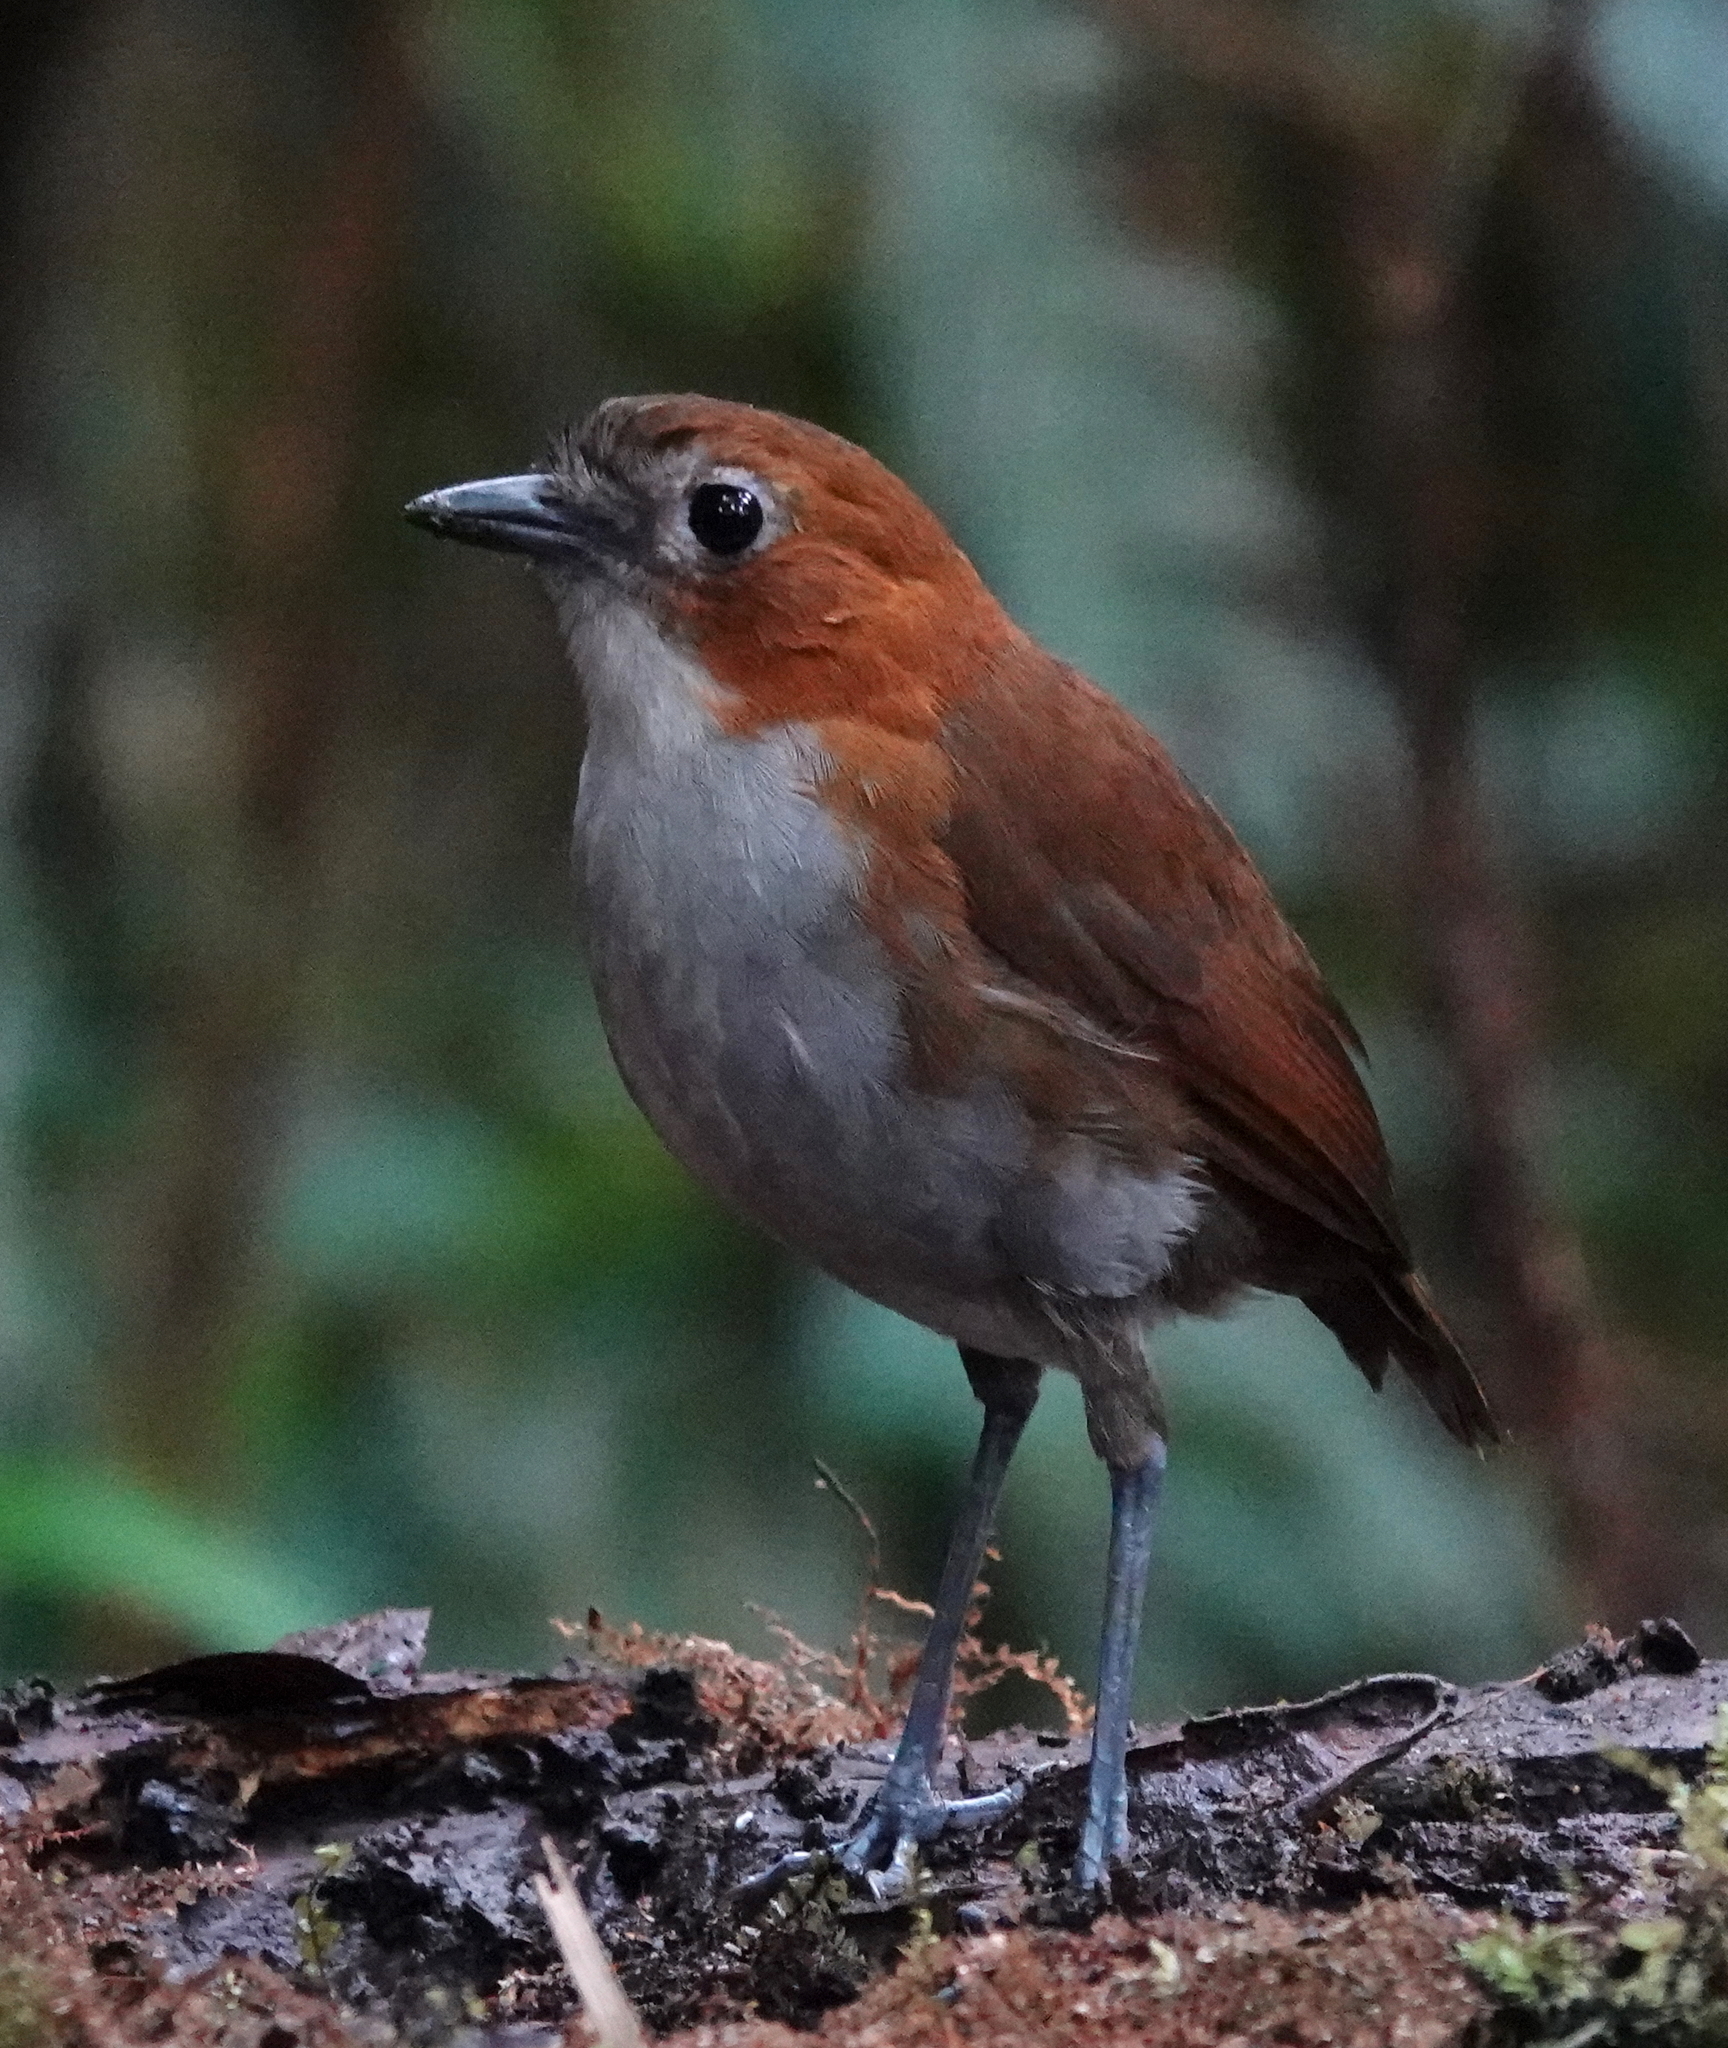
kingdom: Animalia
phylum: Chordata
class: Aves
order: Passeriformes
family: Grallariidae
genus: Grallaria
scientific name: Grallaria hypoleuca
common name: White-bellied antpitta
